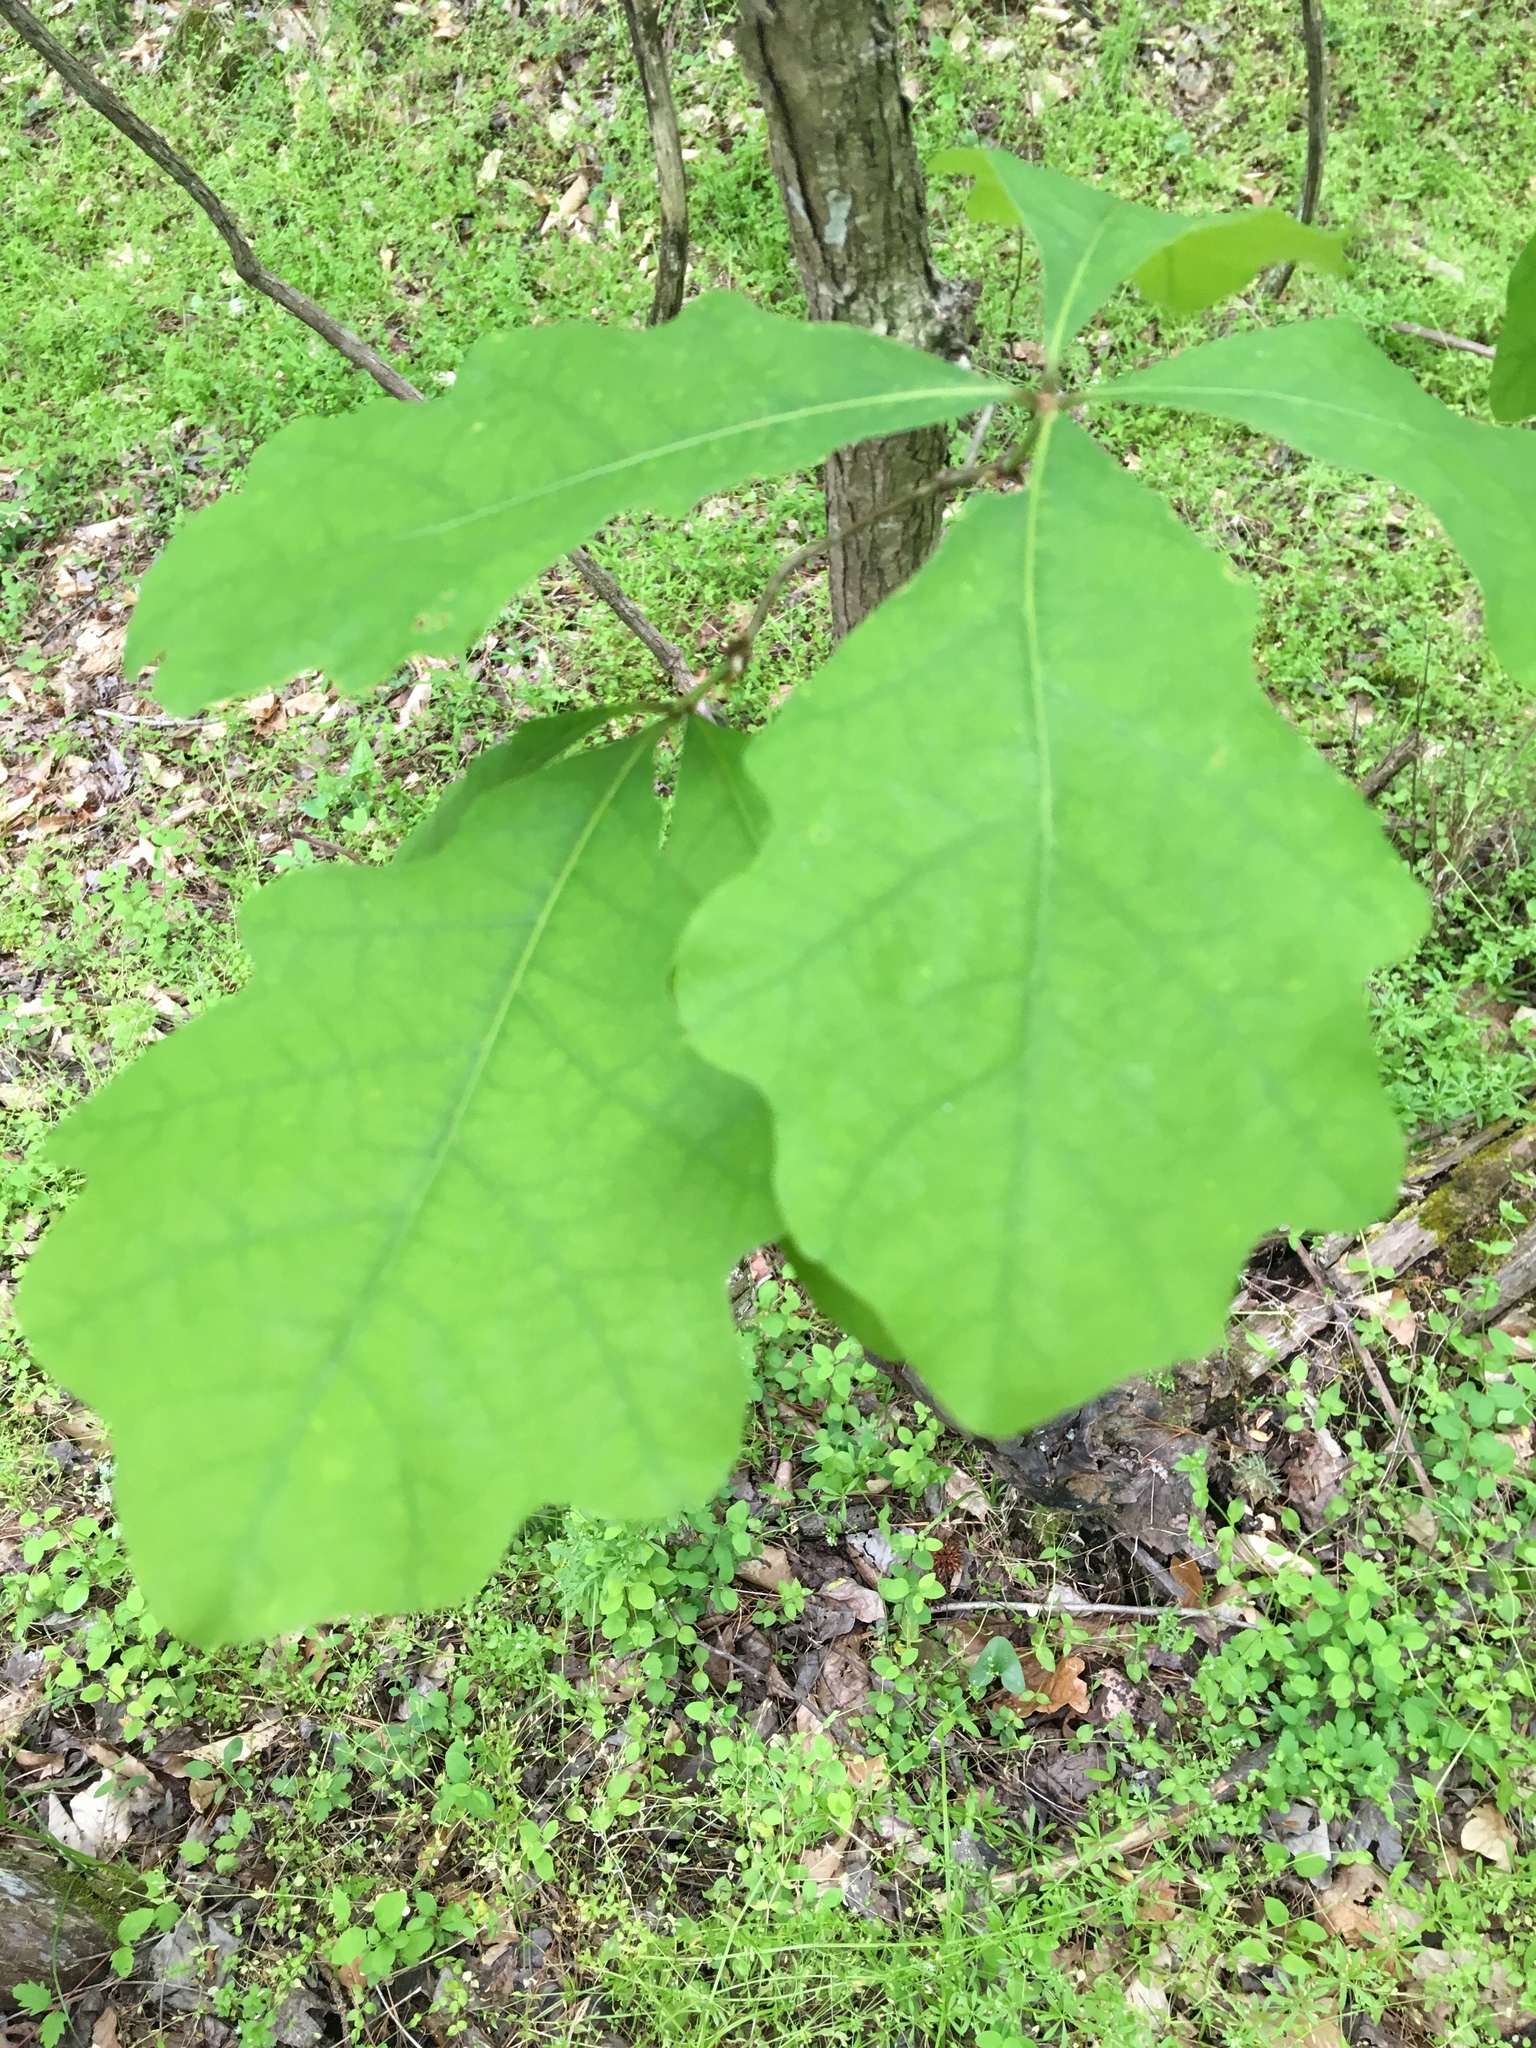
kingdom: Plantae
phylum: Tracheophyta
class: Magnoliopsida
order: Fagales
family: Fagaceae
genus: Quercus
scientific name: Quercus alba
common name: White oak
